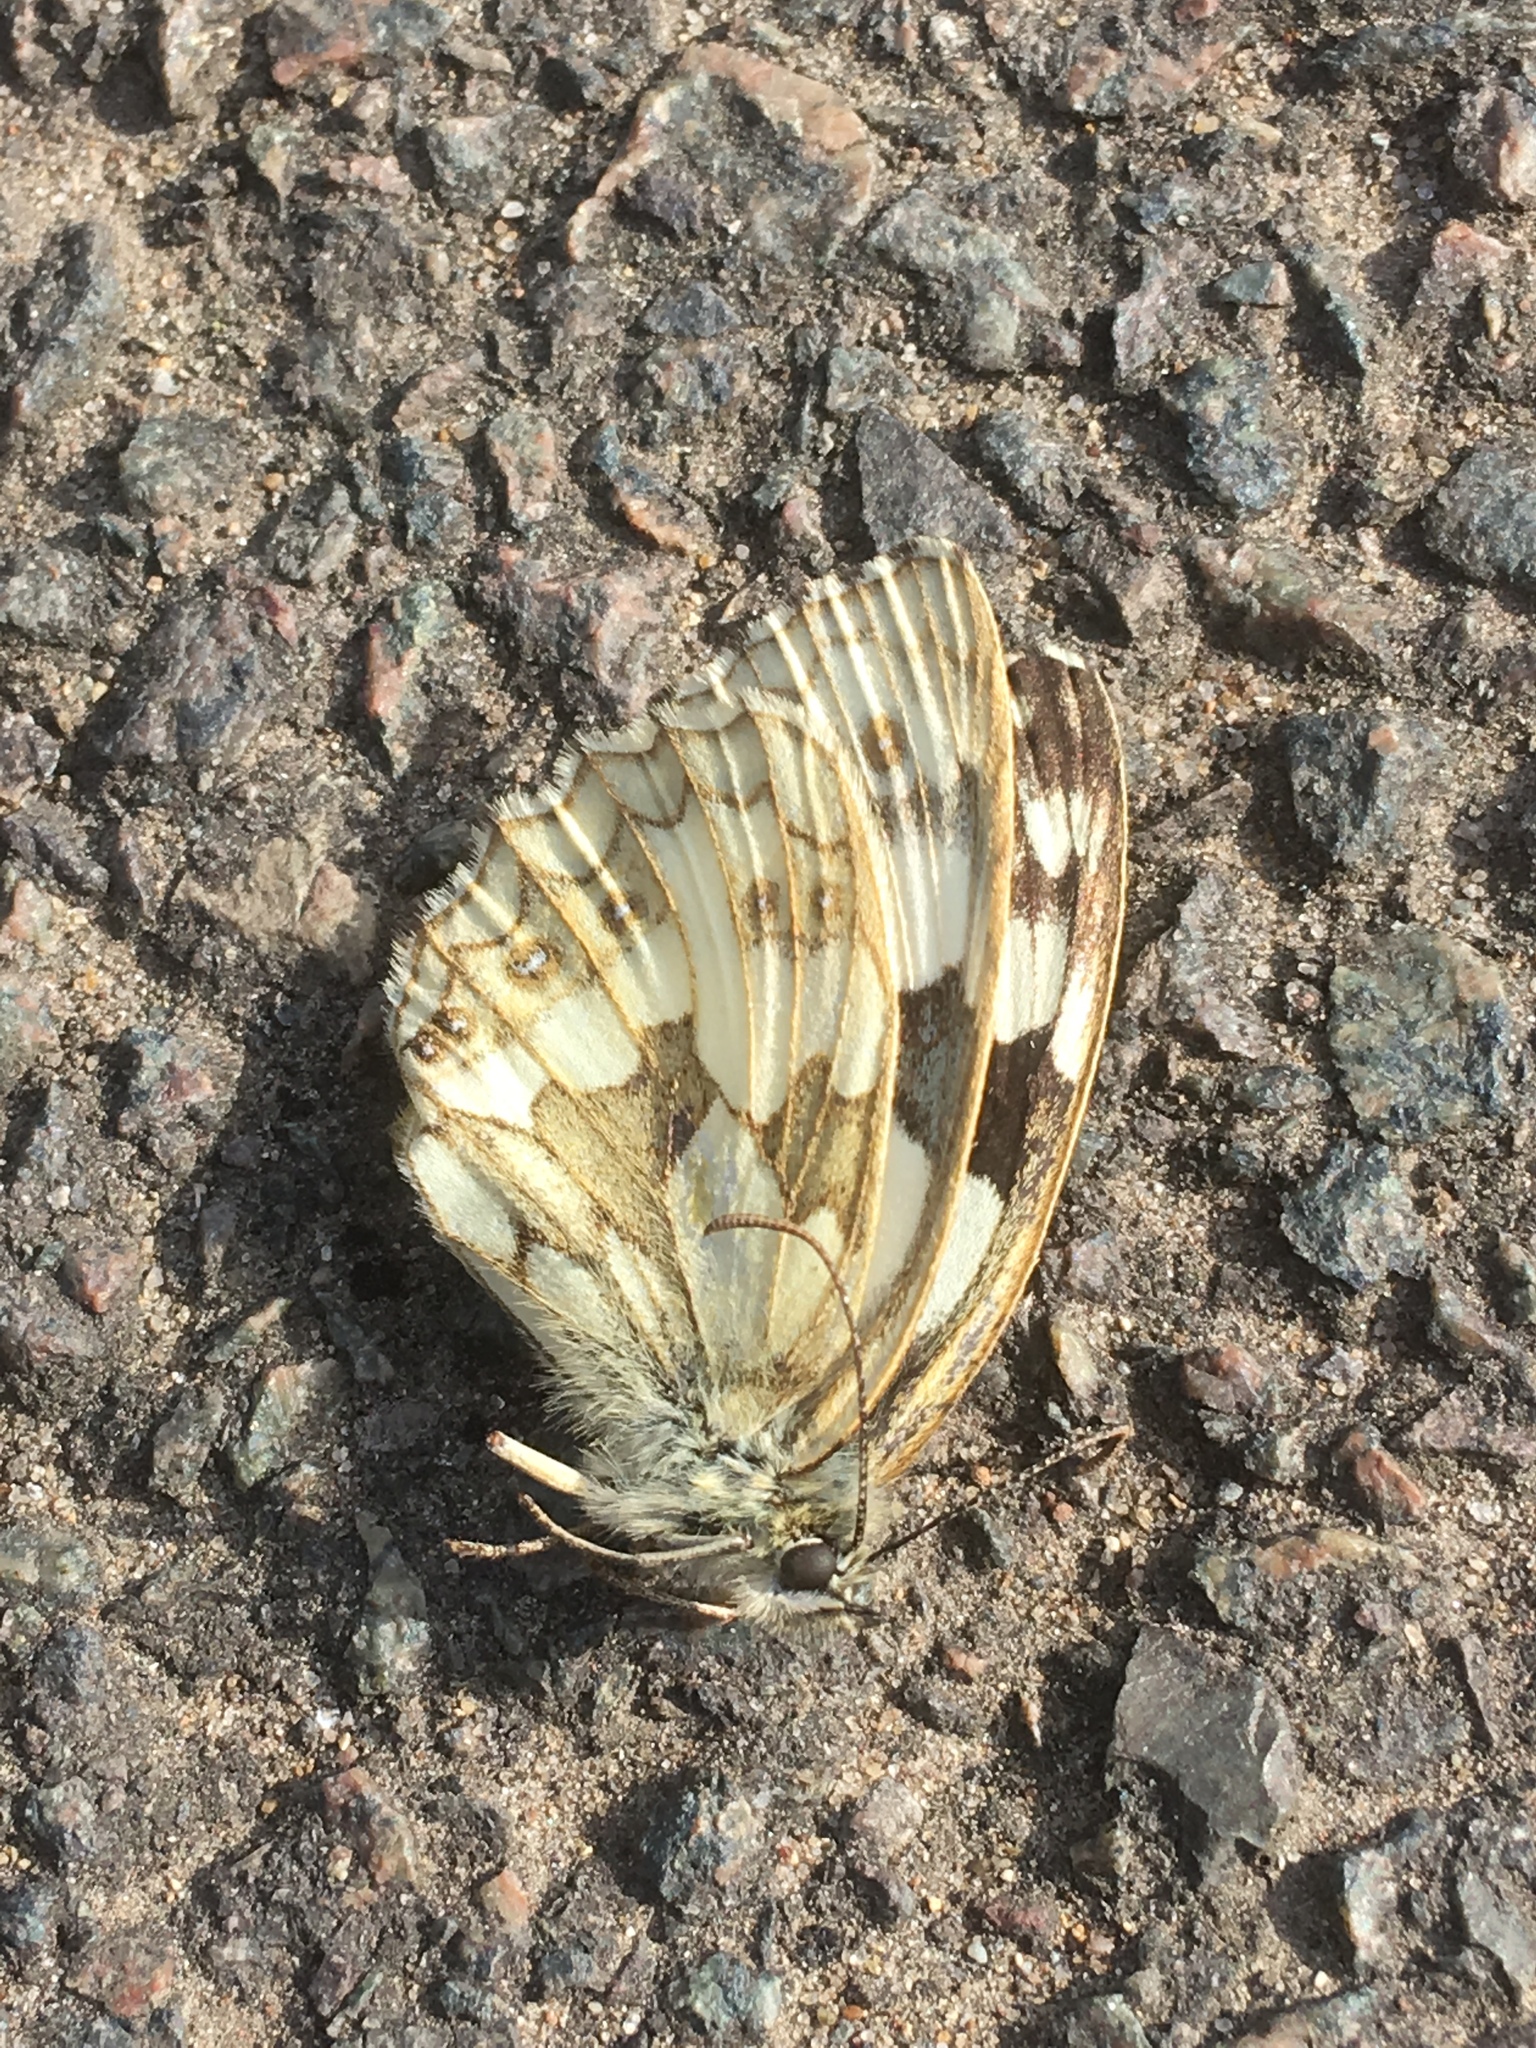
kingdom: Animalia
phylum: Arthropoda
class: Insecta
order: Lepidoptera
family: Nymphalidae
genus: Melanargia
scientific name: Melanargia galathea
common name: Marbled white
